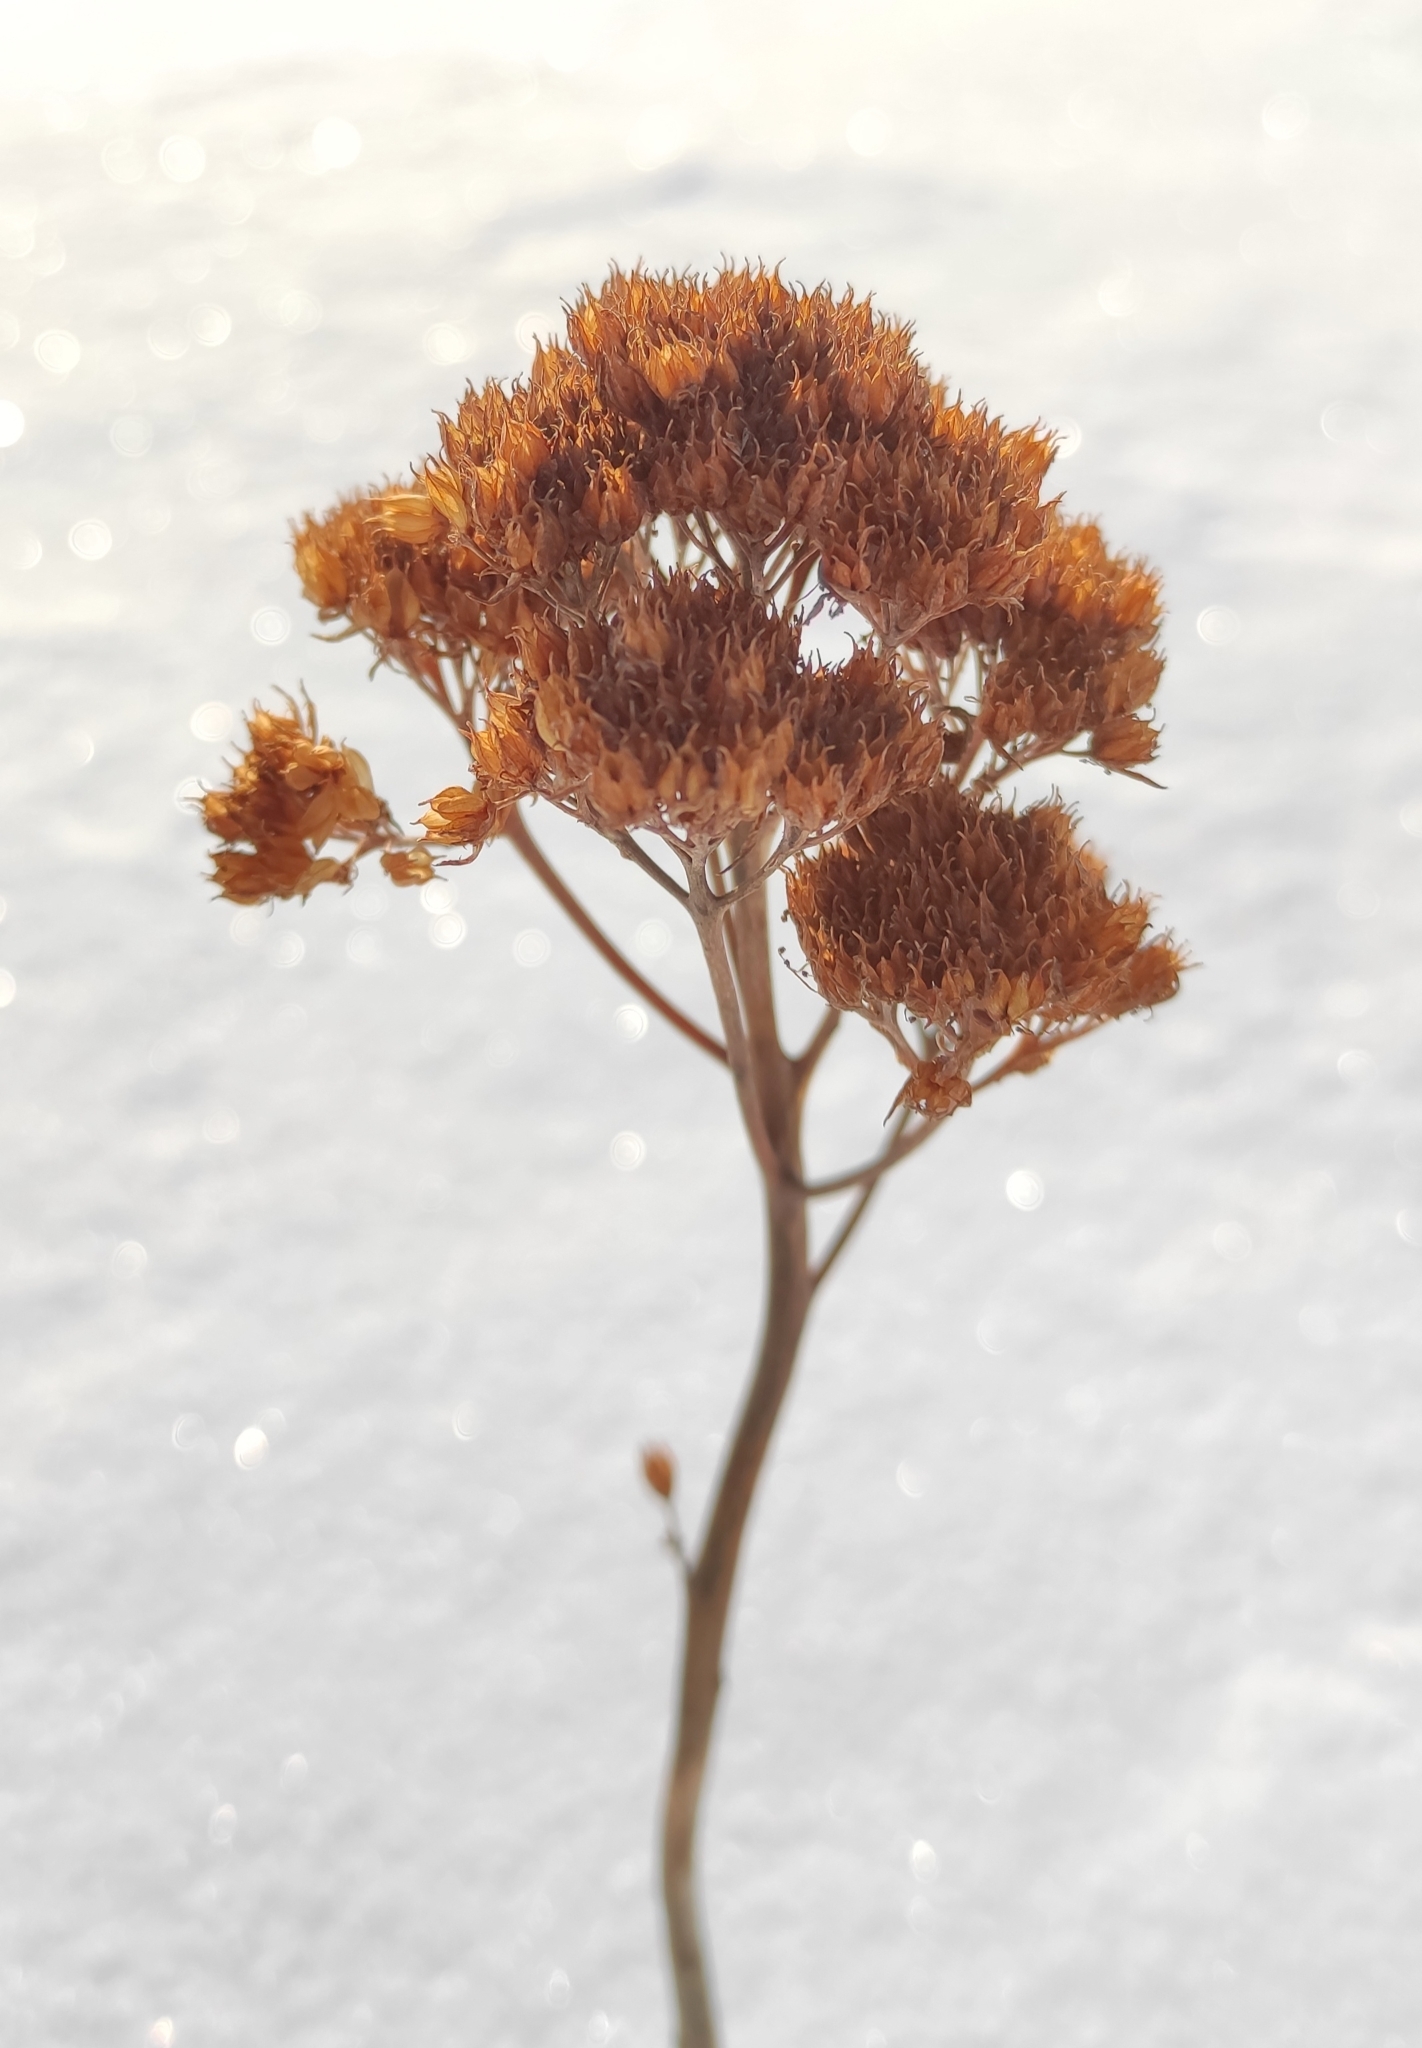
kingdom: Plantae
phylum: Tracheophyta
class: Magnoliopsida
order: Saxifragales
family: Crassulaceae
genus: Hylotelephium
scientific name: Hylotelephium telephium
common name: Live-forever
